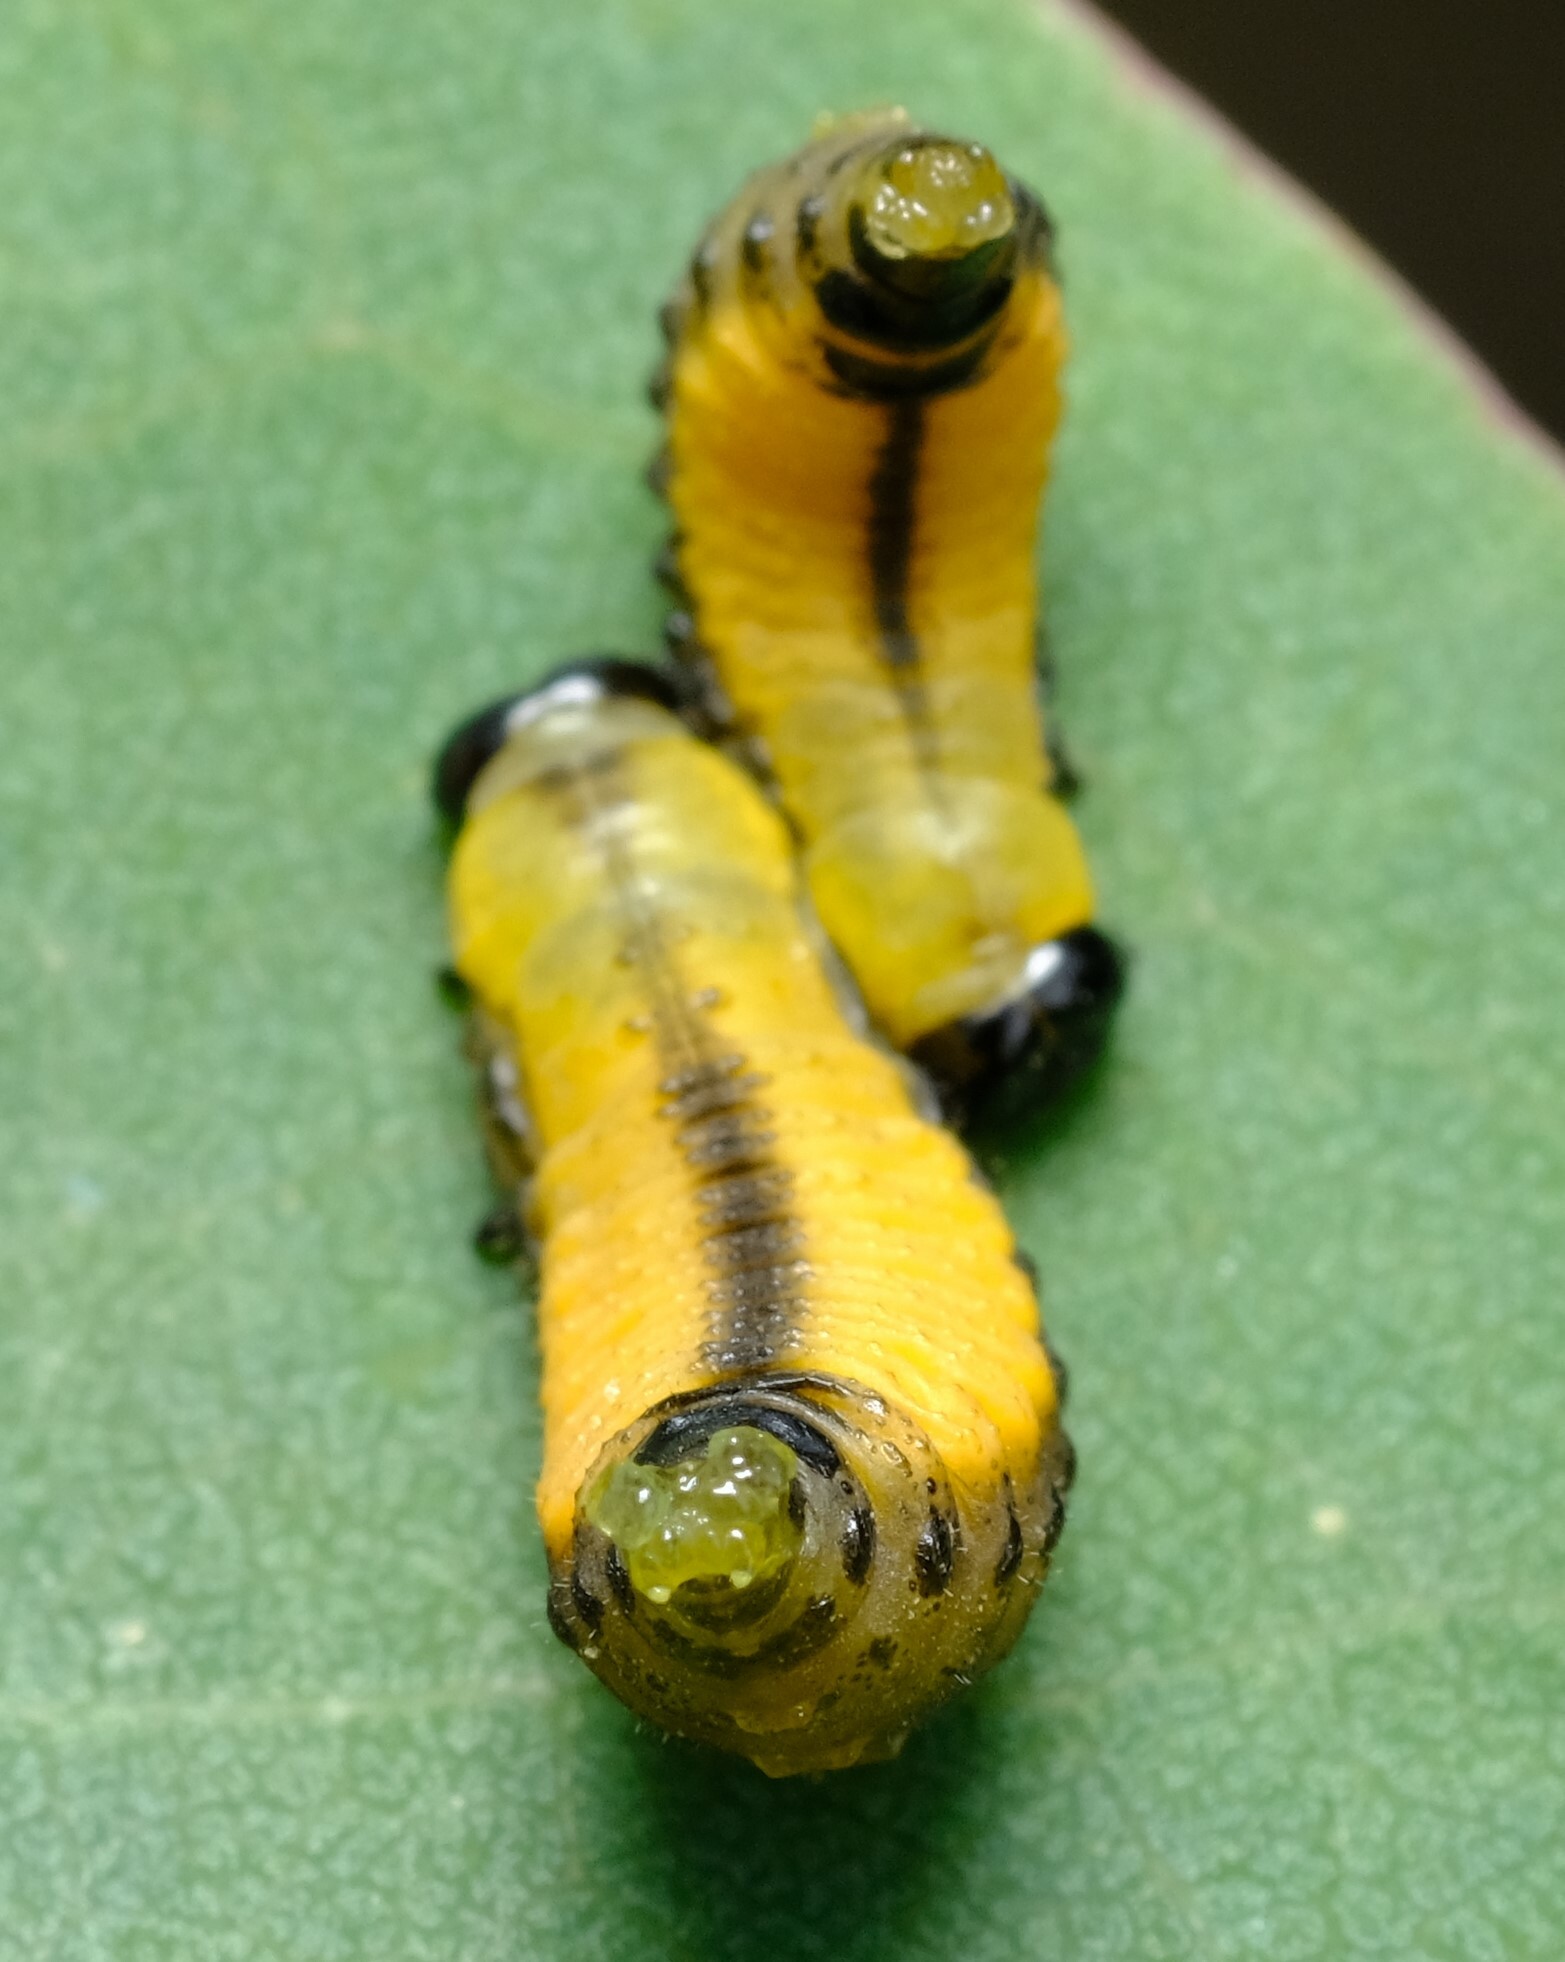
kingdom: Animalia
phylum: Arthropoda
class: Insecta
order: Coleoptera
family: Chrysomelidae
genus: Paropsisterna
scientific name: Paropsisterna cloelia
